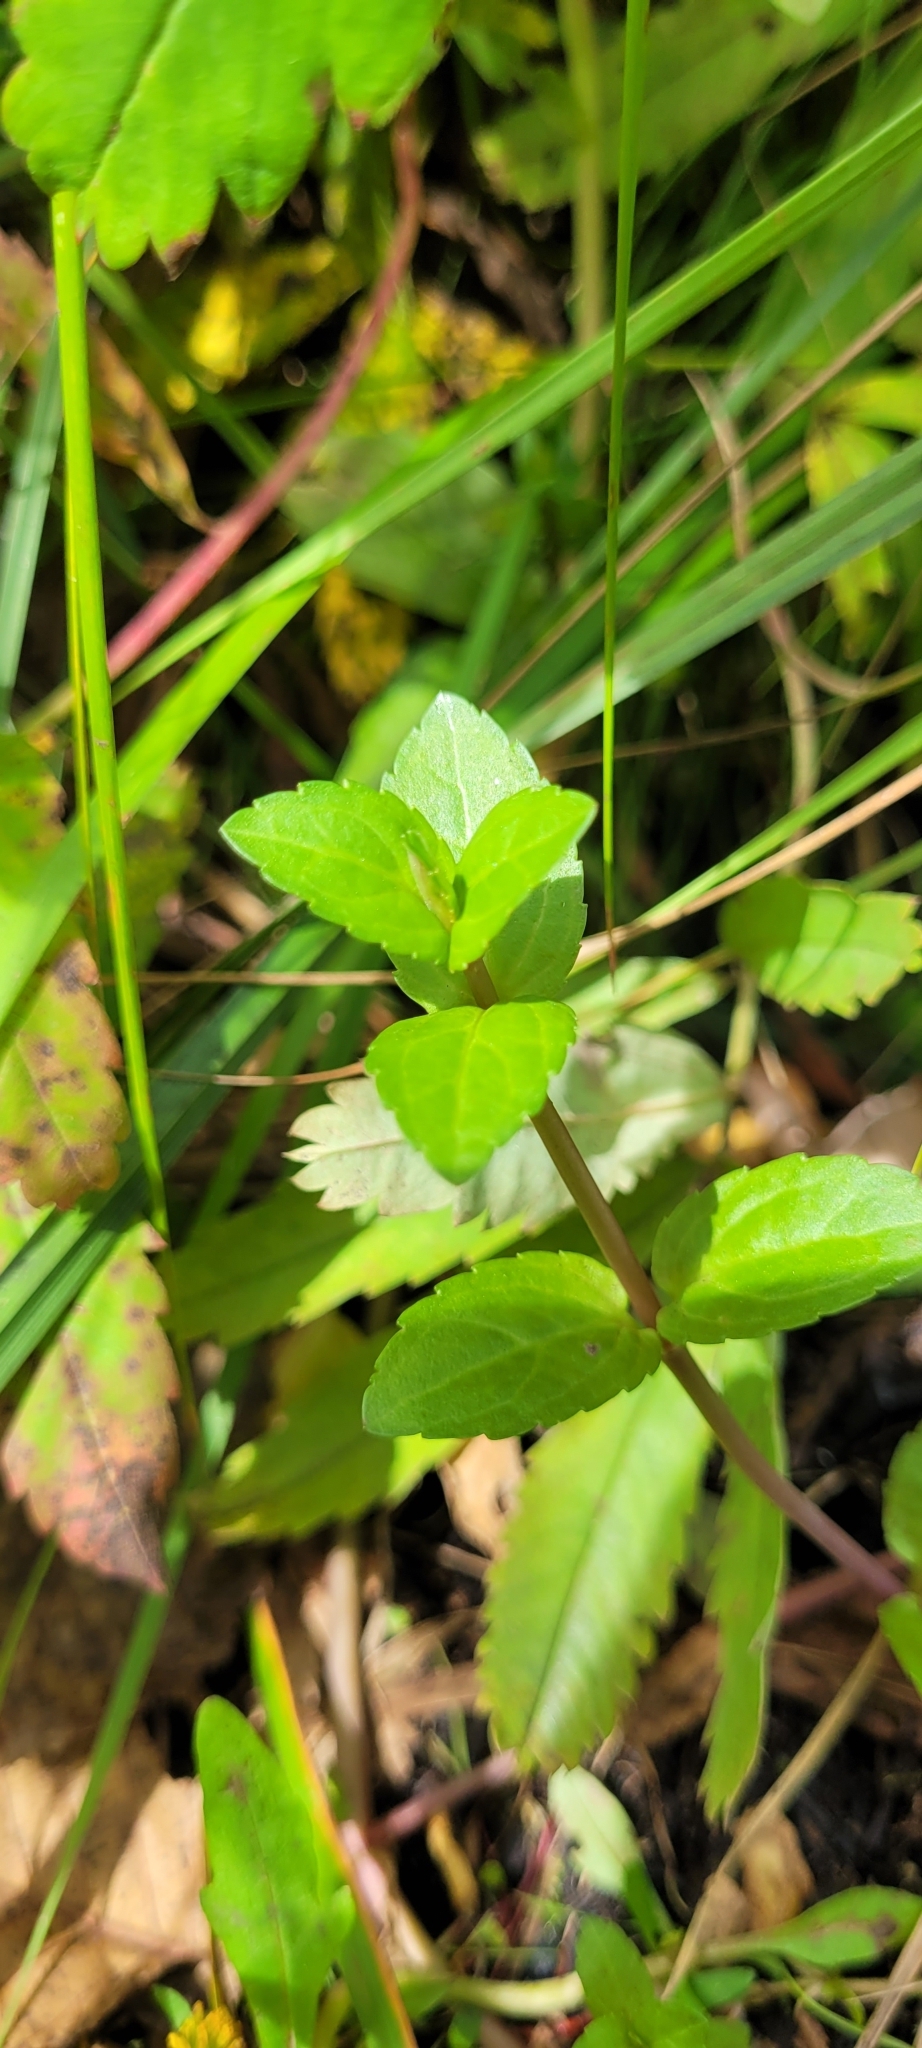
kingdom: Plantae
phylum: Tracheophyta
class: Magnoliopsida
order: Lamiales
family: Plantaginaceae
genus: Veronica
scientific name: Veronica americana
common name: American brooklime
